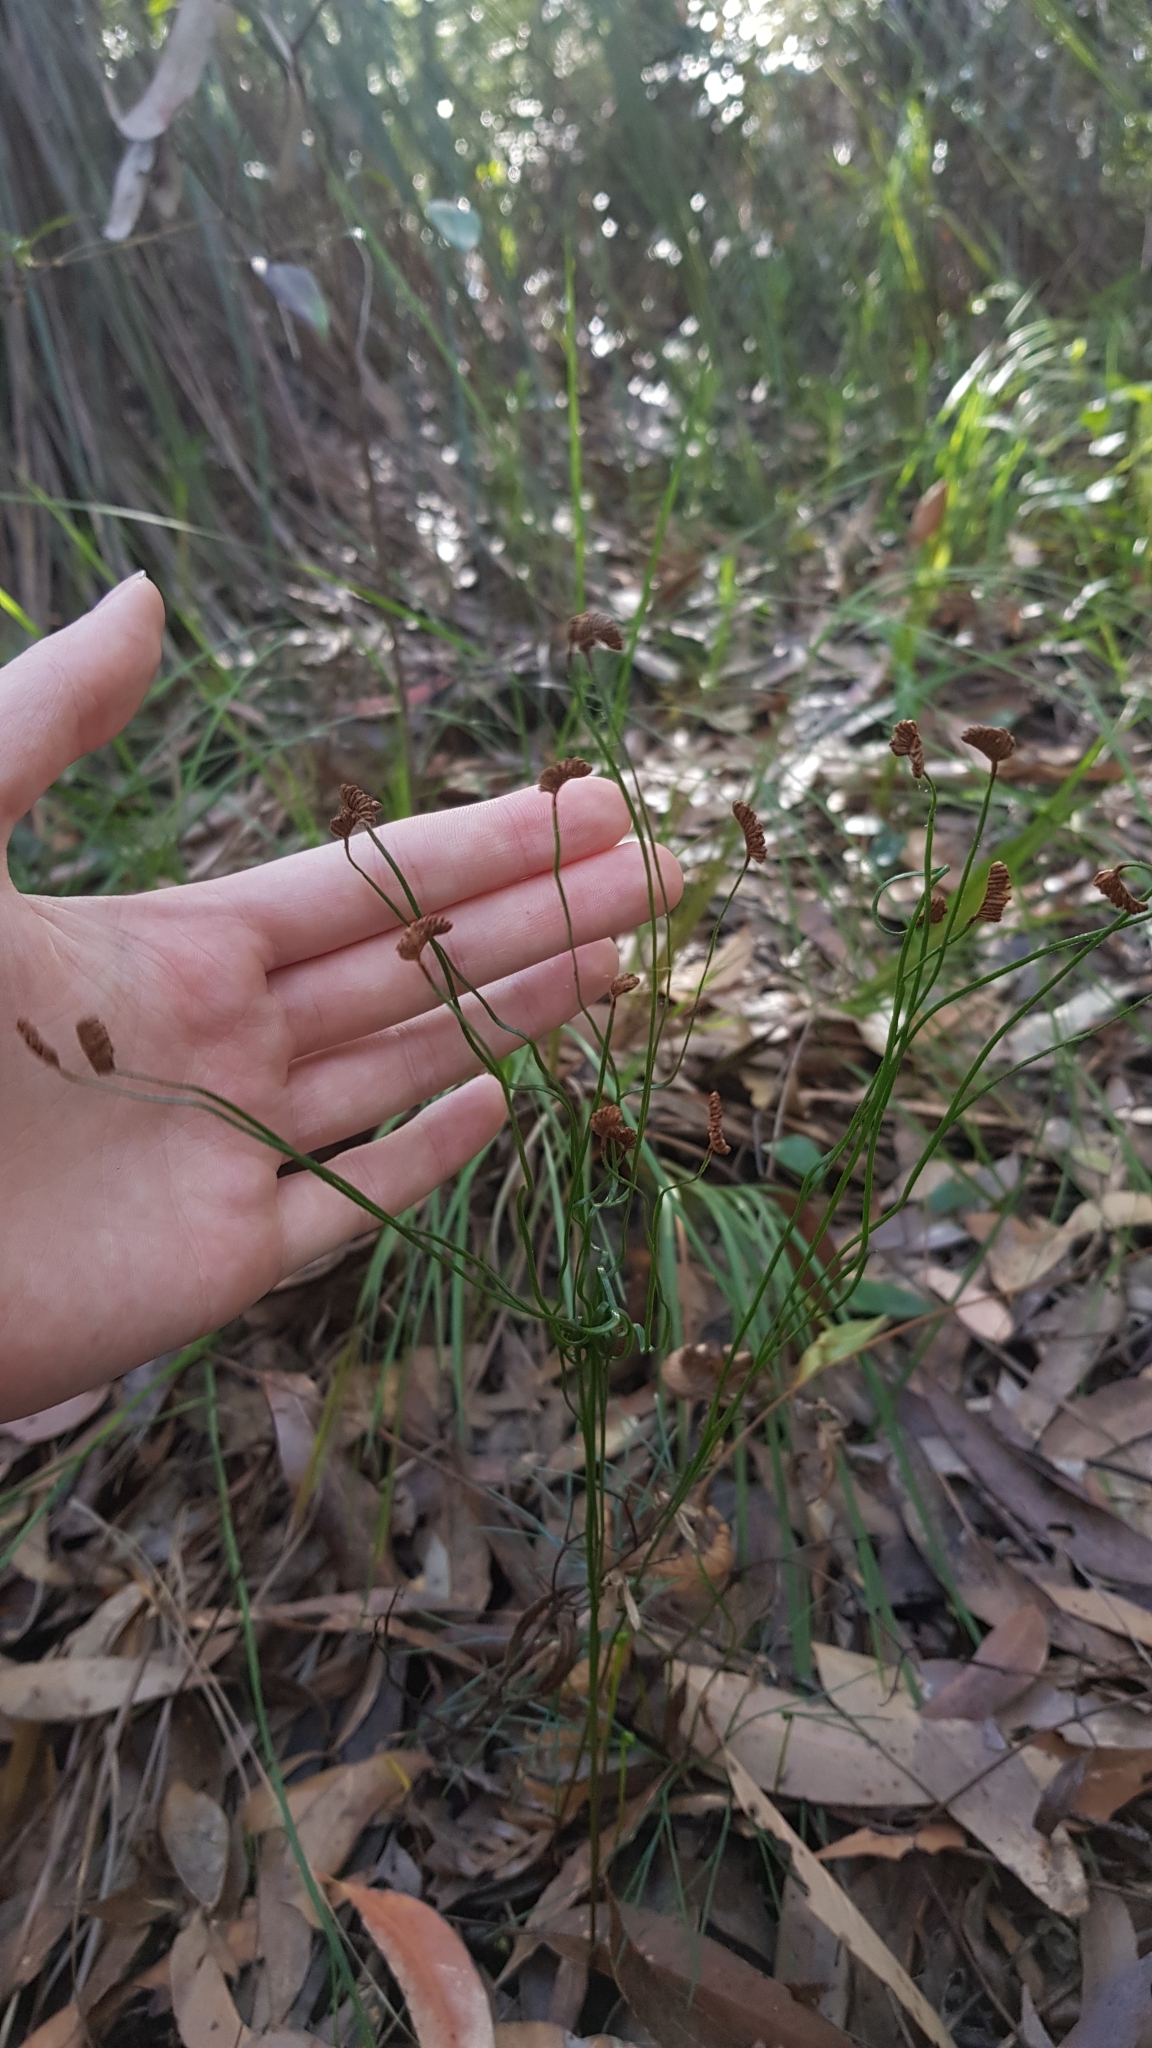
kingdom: Plantae
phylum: Tracheophyta
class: Polypodiopsida
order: Schizaeales
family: Schizaeaceae
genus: Schizaea
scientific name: Schizaea bifida
